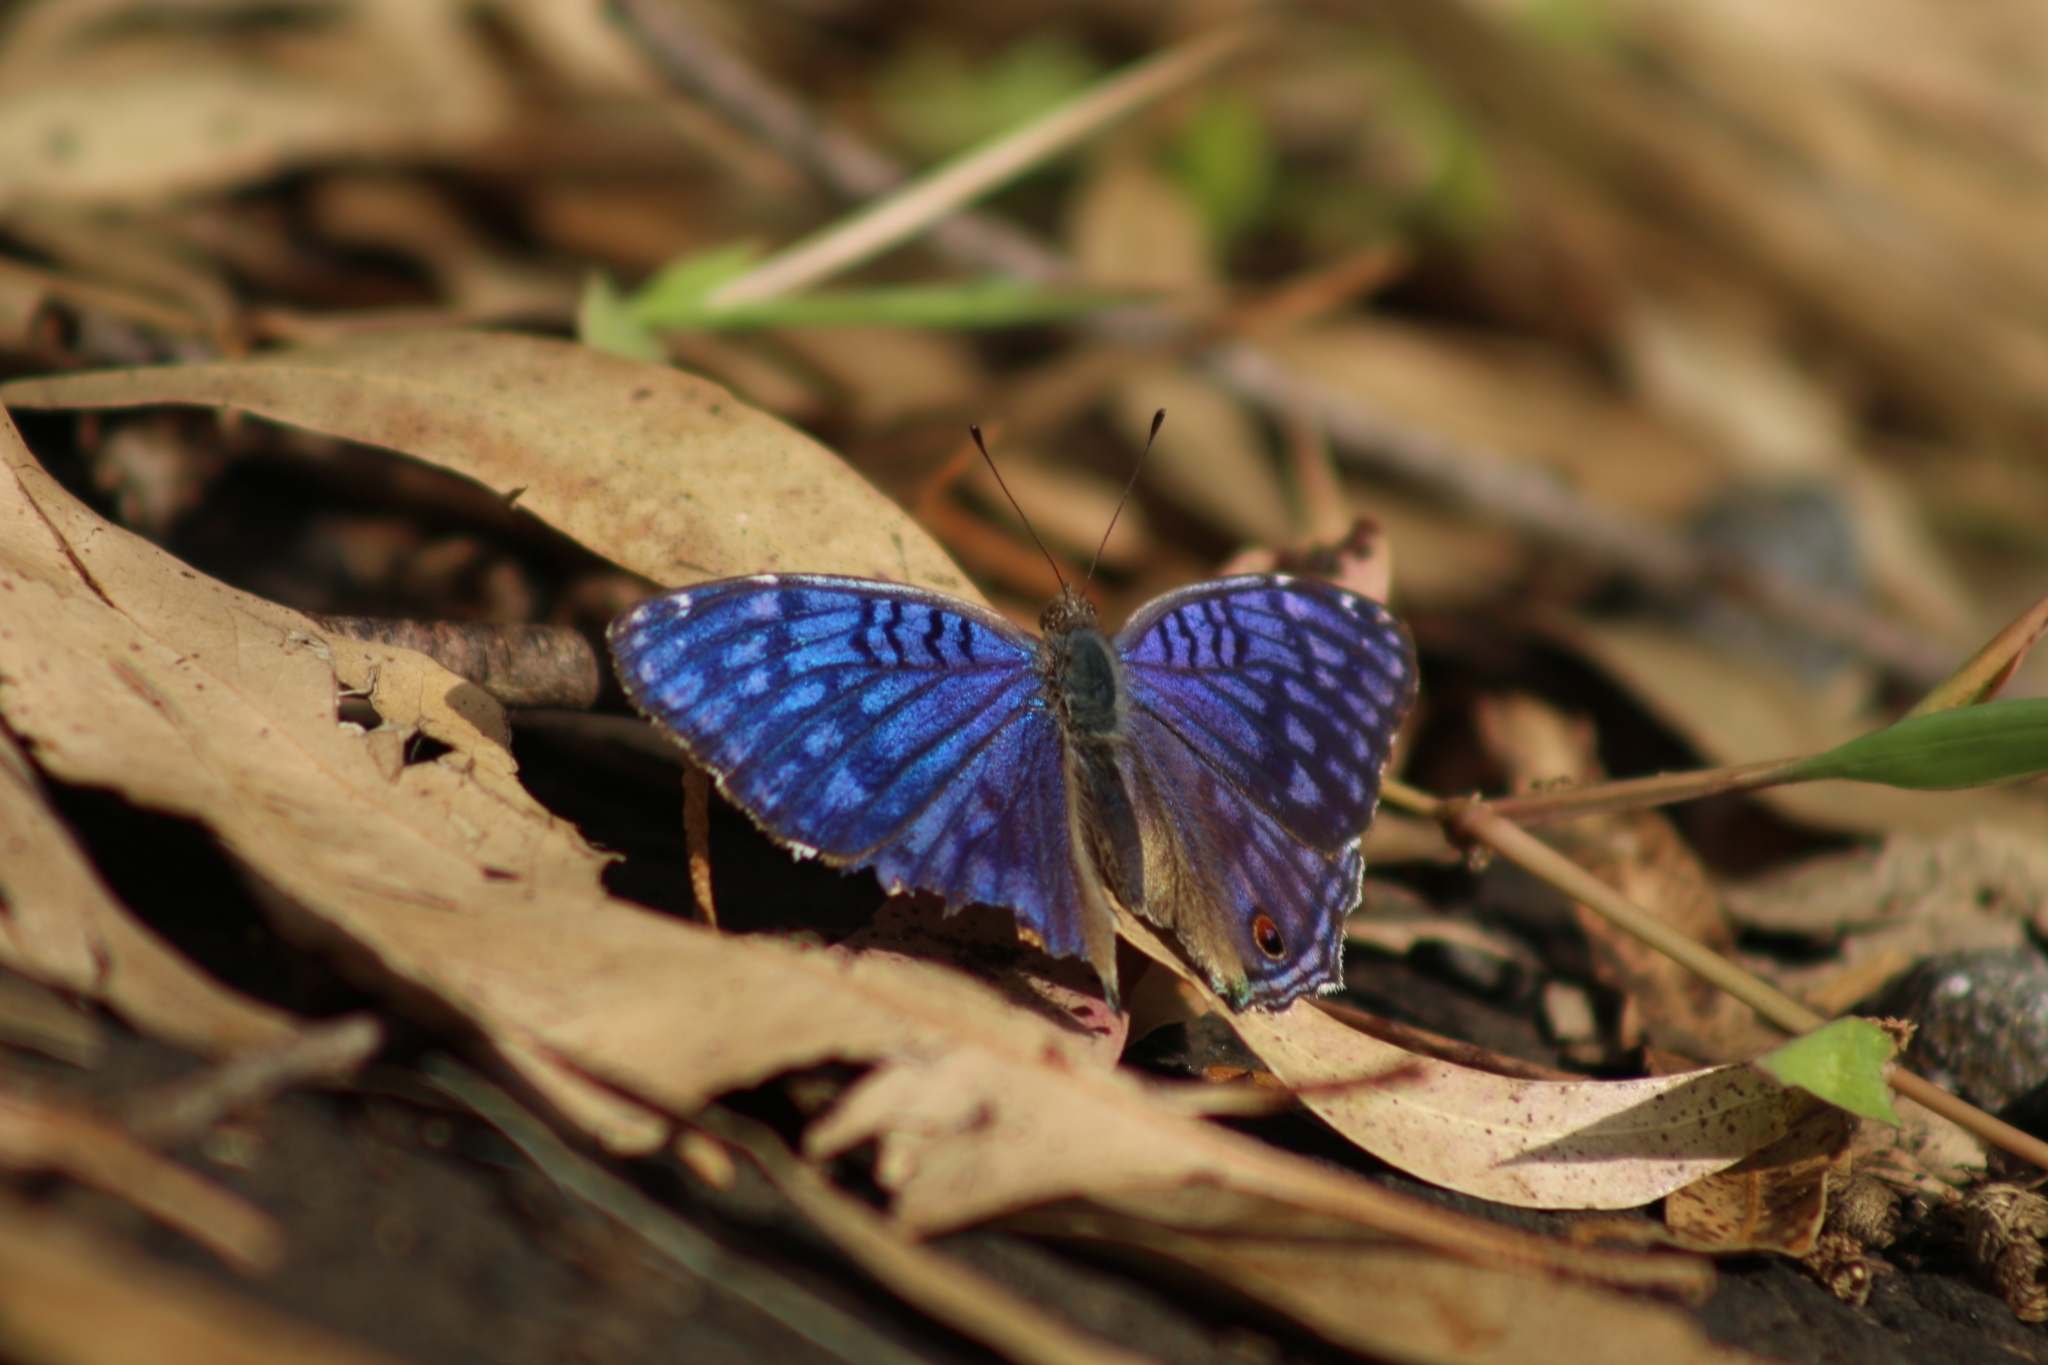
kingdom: Animalia
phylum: Arthropoda
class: Insecta
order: Lepidoptera
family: Nymphalidae
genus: Junonia
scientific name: Junonia rhadama
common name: Royal blue pansy
